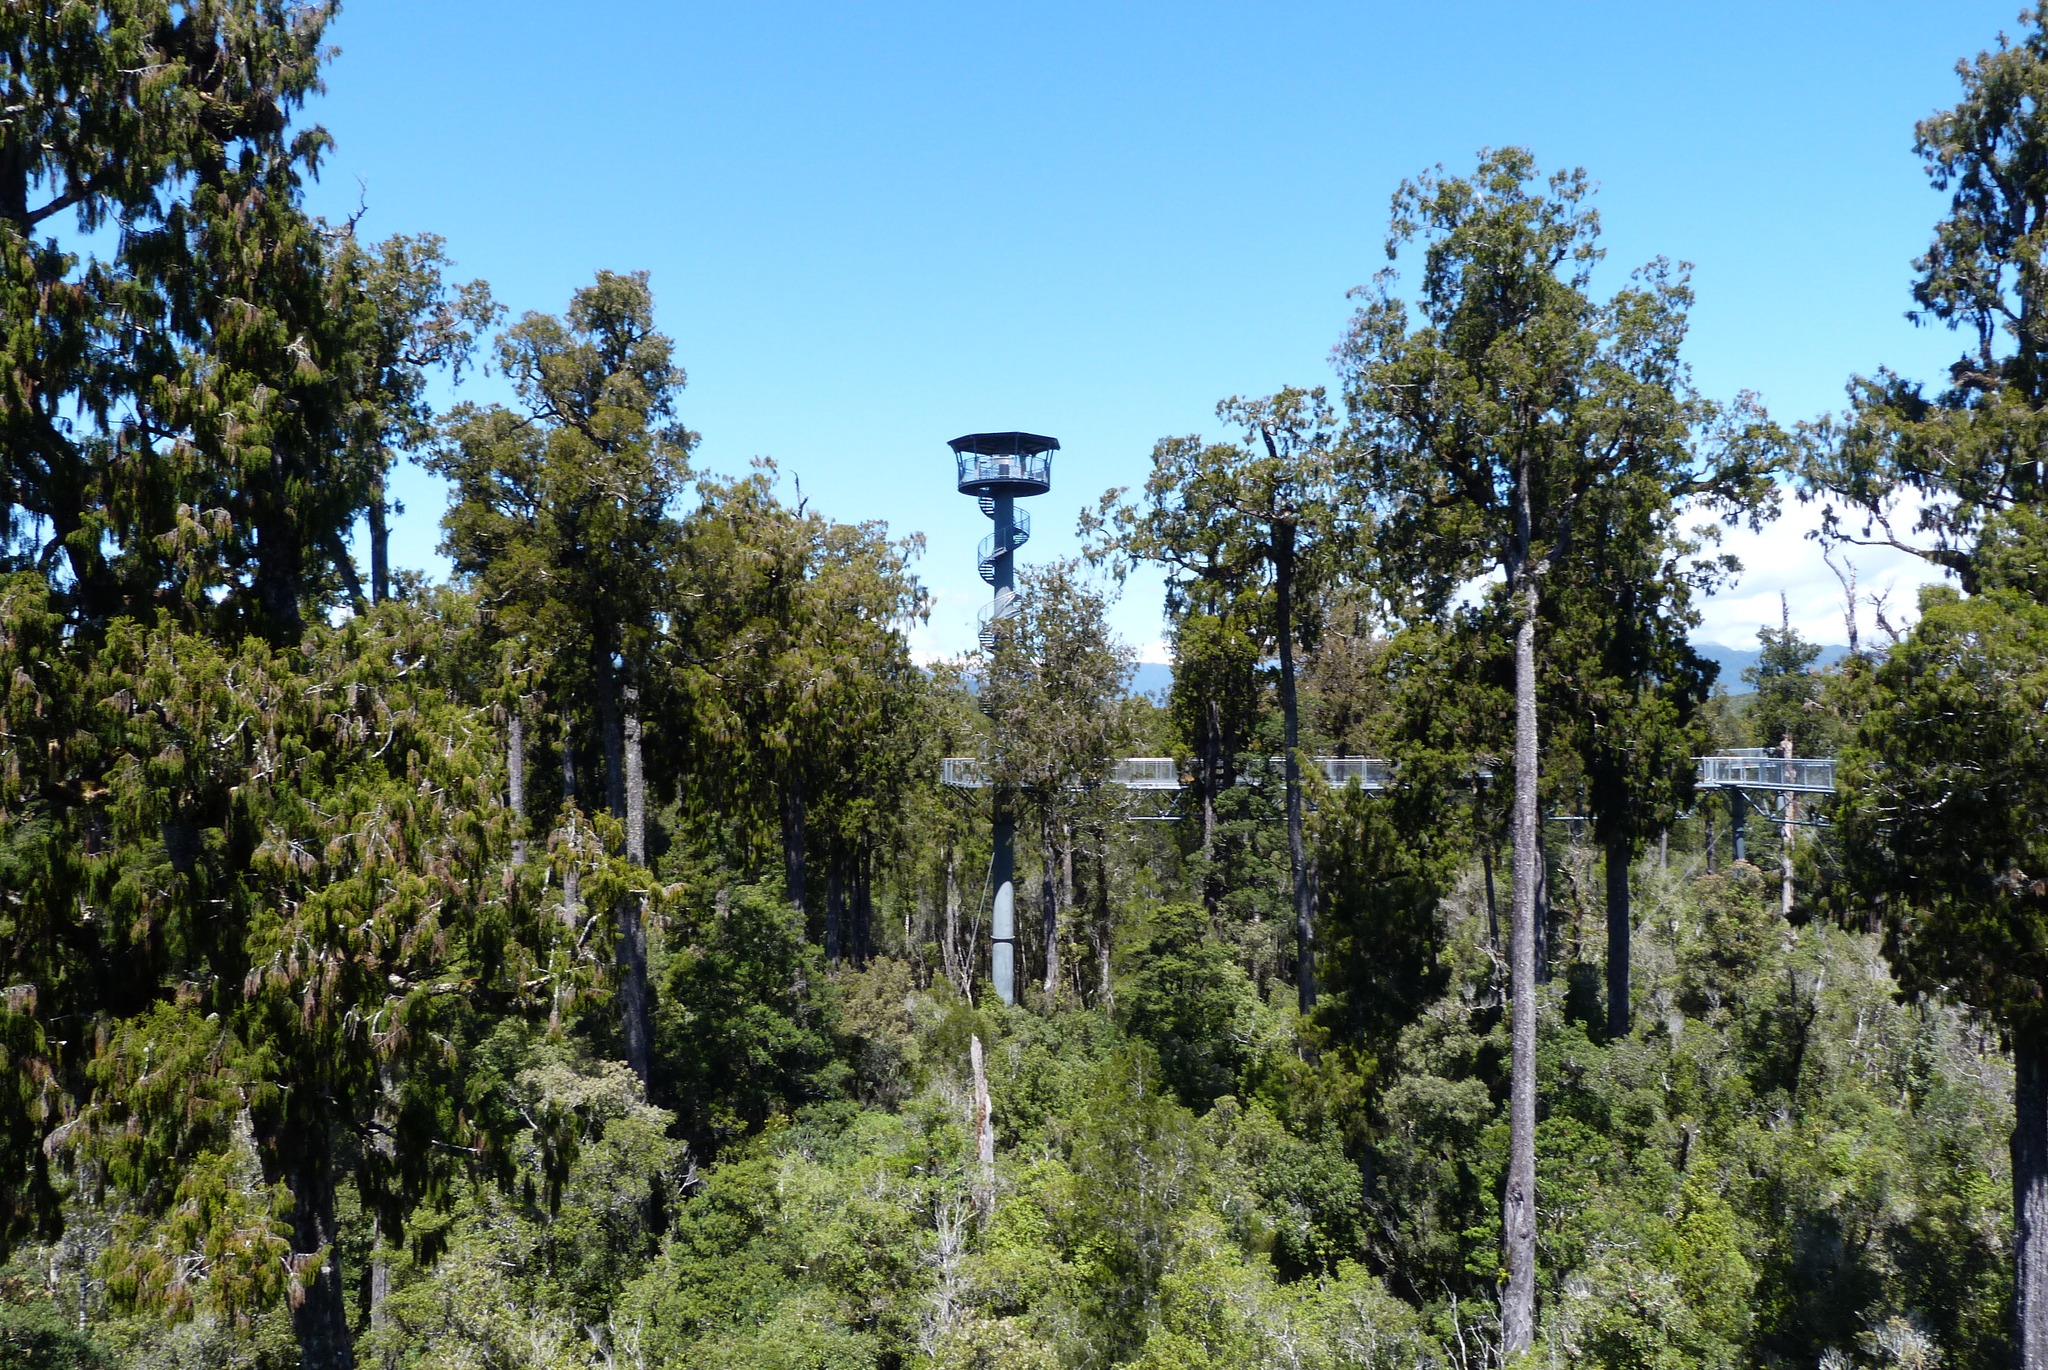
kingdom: Plantae
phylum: Tracheophyta
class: Pinopsida
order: Pinales
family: Podocarpaceae
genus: Dacrydium
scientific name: Dacrydium cupressinum
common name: Red pine
